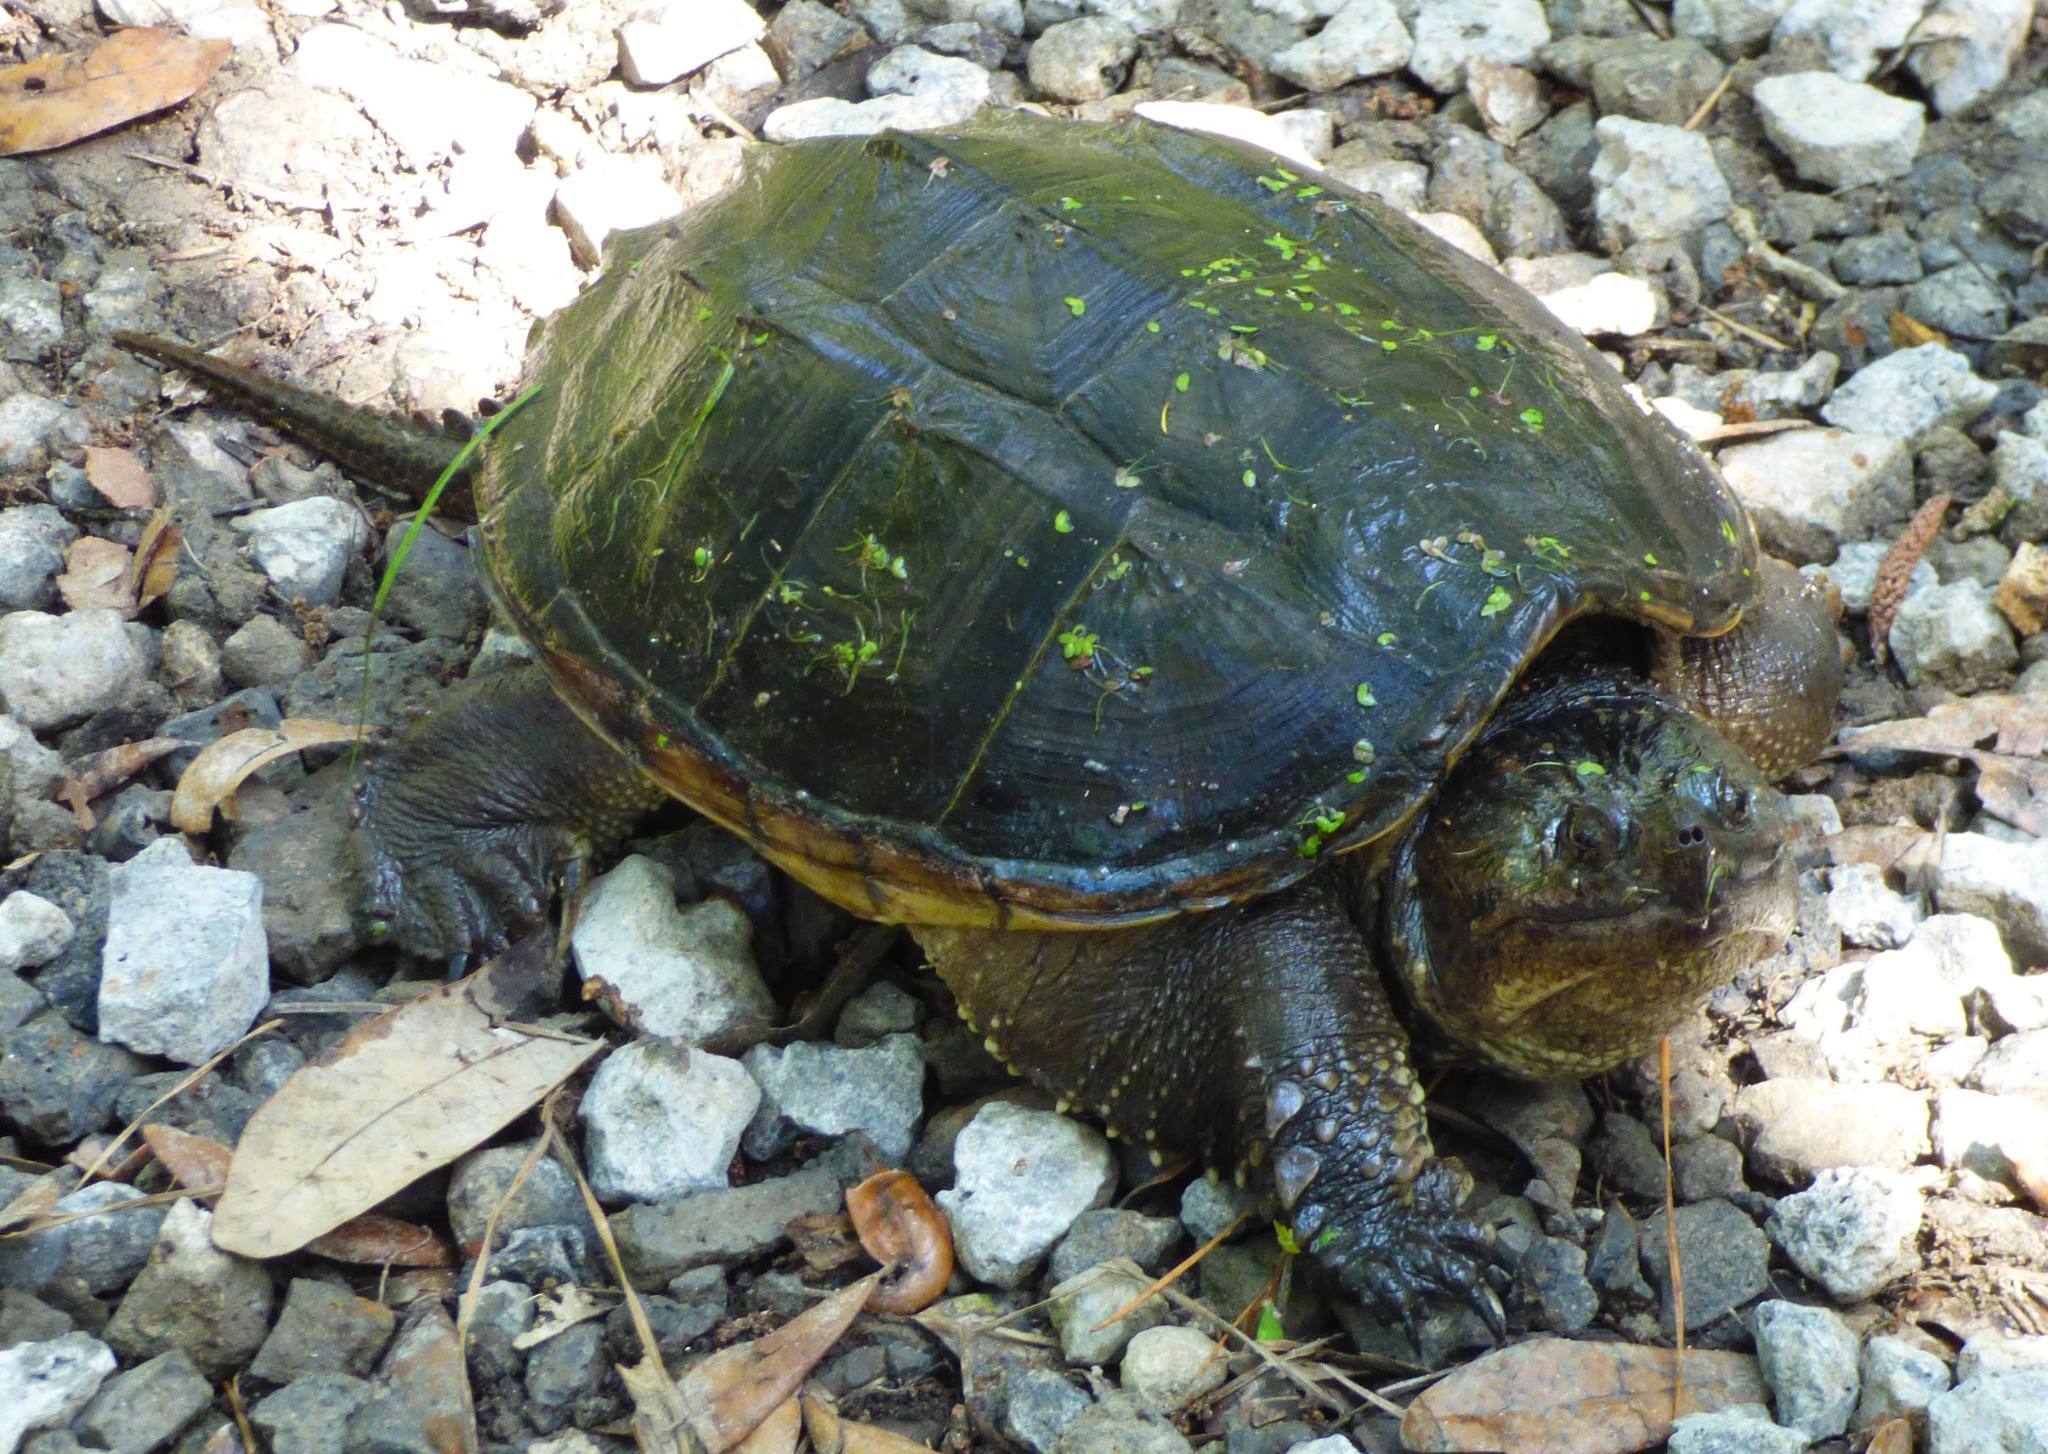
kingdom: Animalia
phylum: Chordata
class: Testudines
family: Chelydridae
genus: Chelydra
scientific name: Chelydra serpentina
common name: Common snapping turtle
